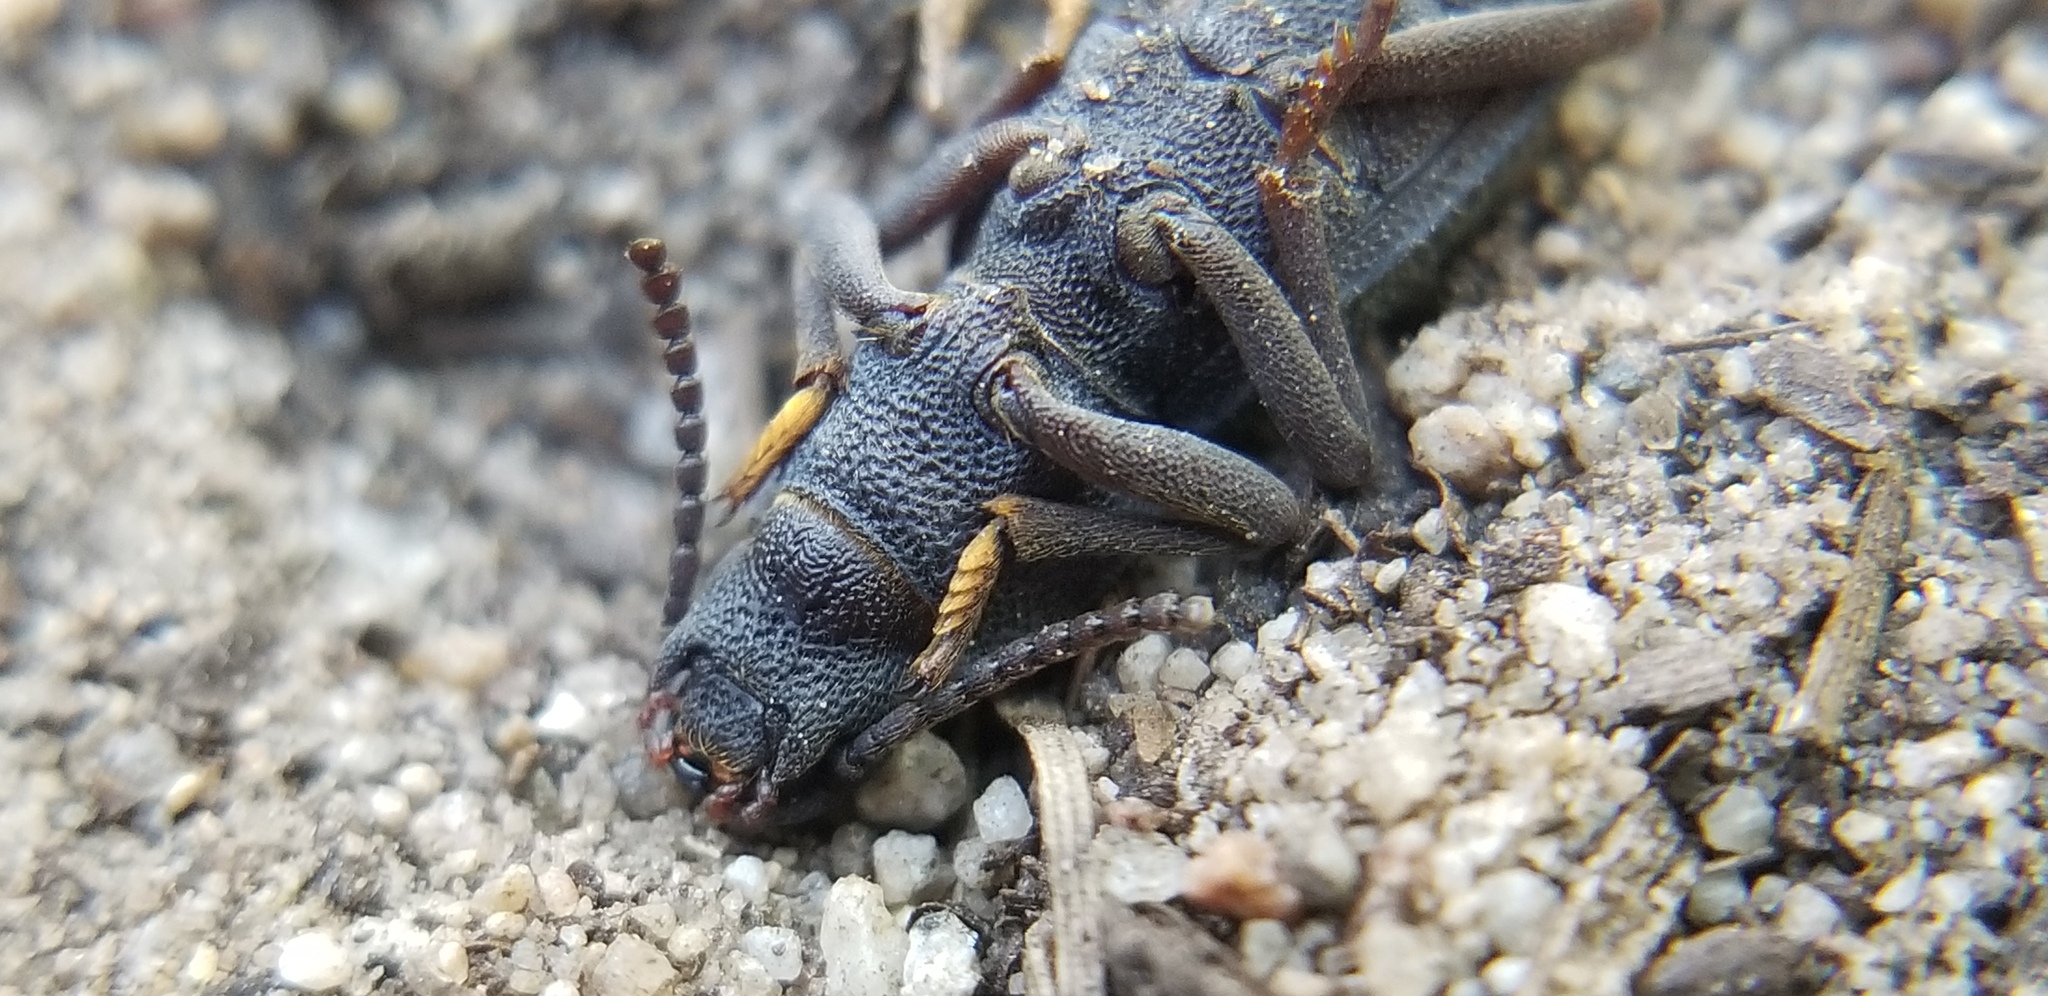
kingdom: Animalia
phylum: Arthropoda
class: Insecta
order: Coleoptera
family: Tenebrionidae
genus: Nyctoporis
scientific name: Nyctoporis carinata
